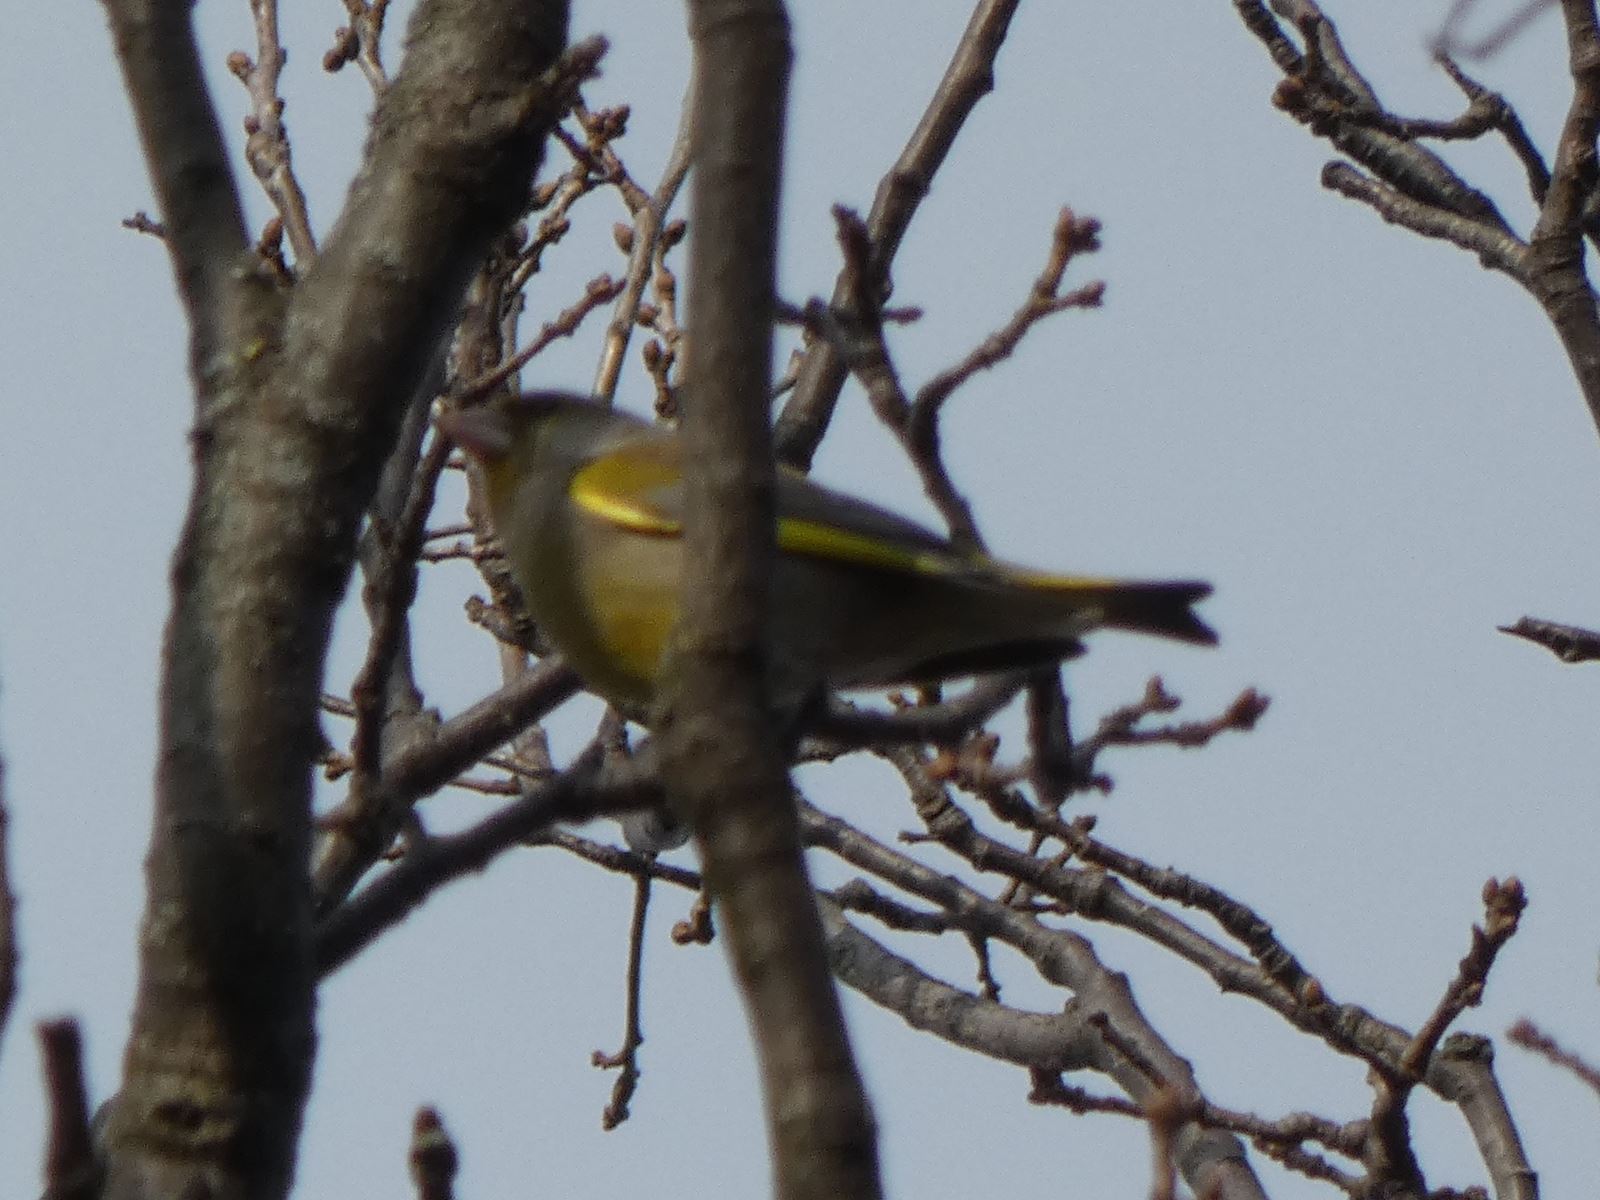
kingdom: Plantae
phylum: Tracheophyta
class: Liliopsida
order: Poales
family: Poaceae
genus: Chloris
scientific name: Chloris chloris
